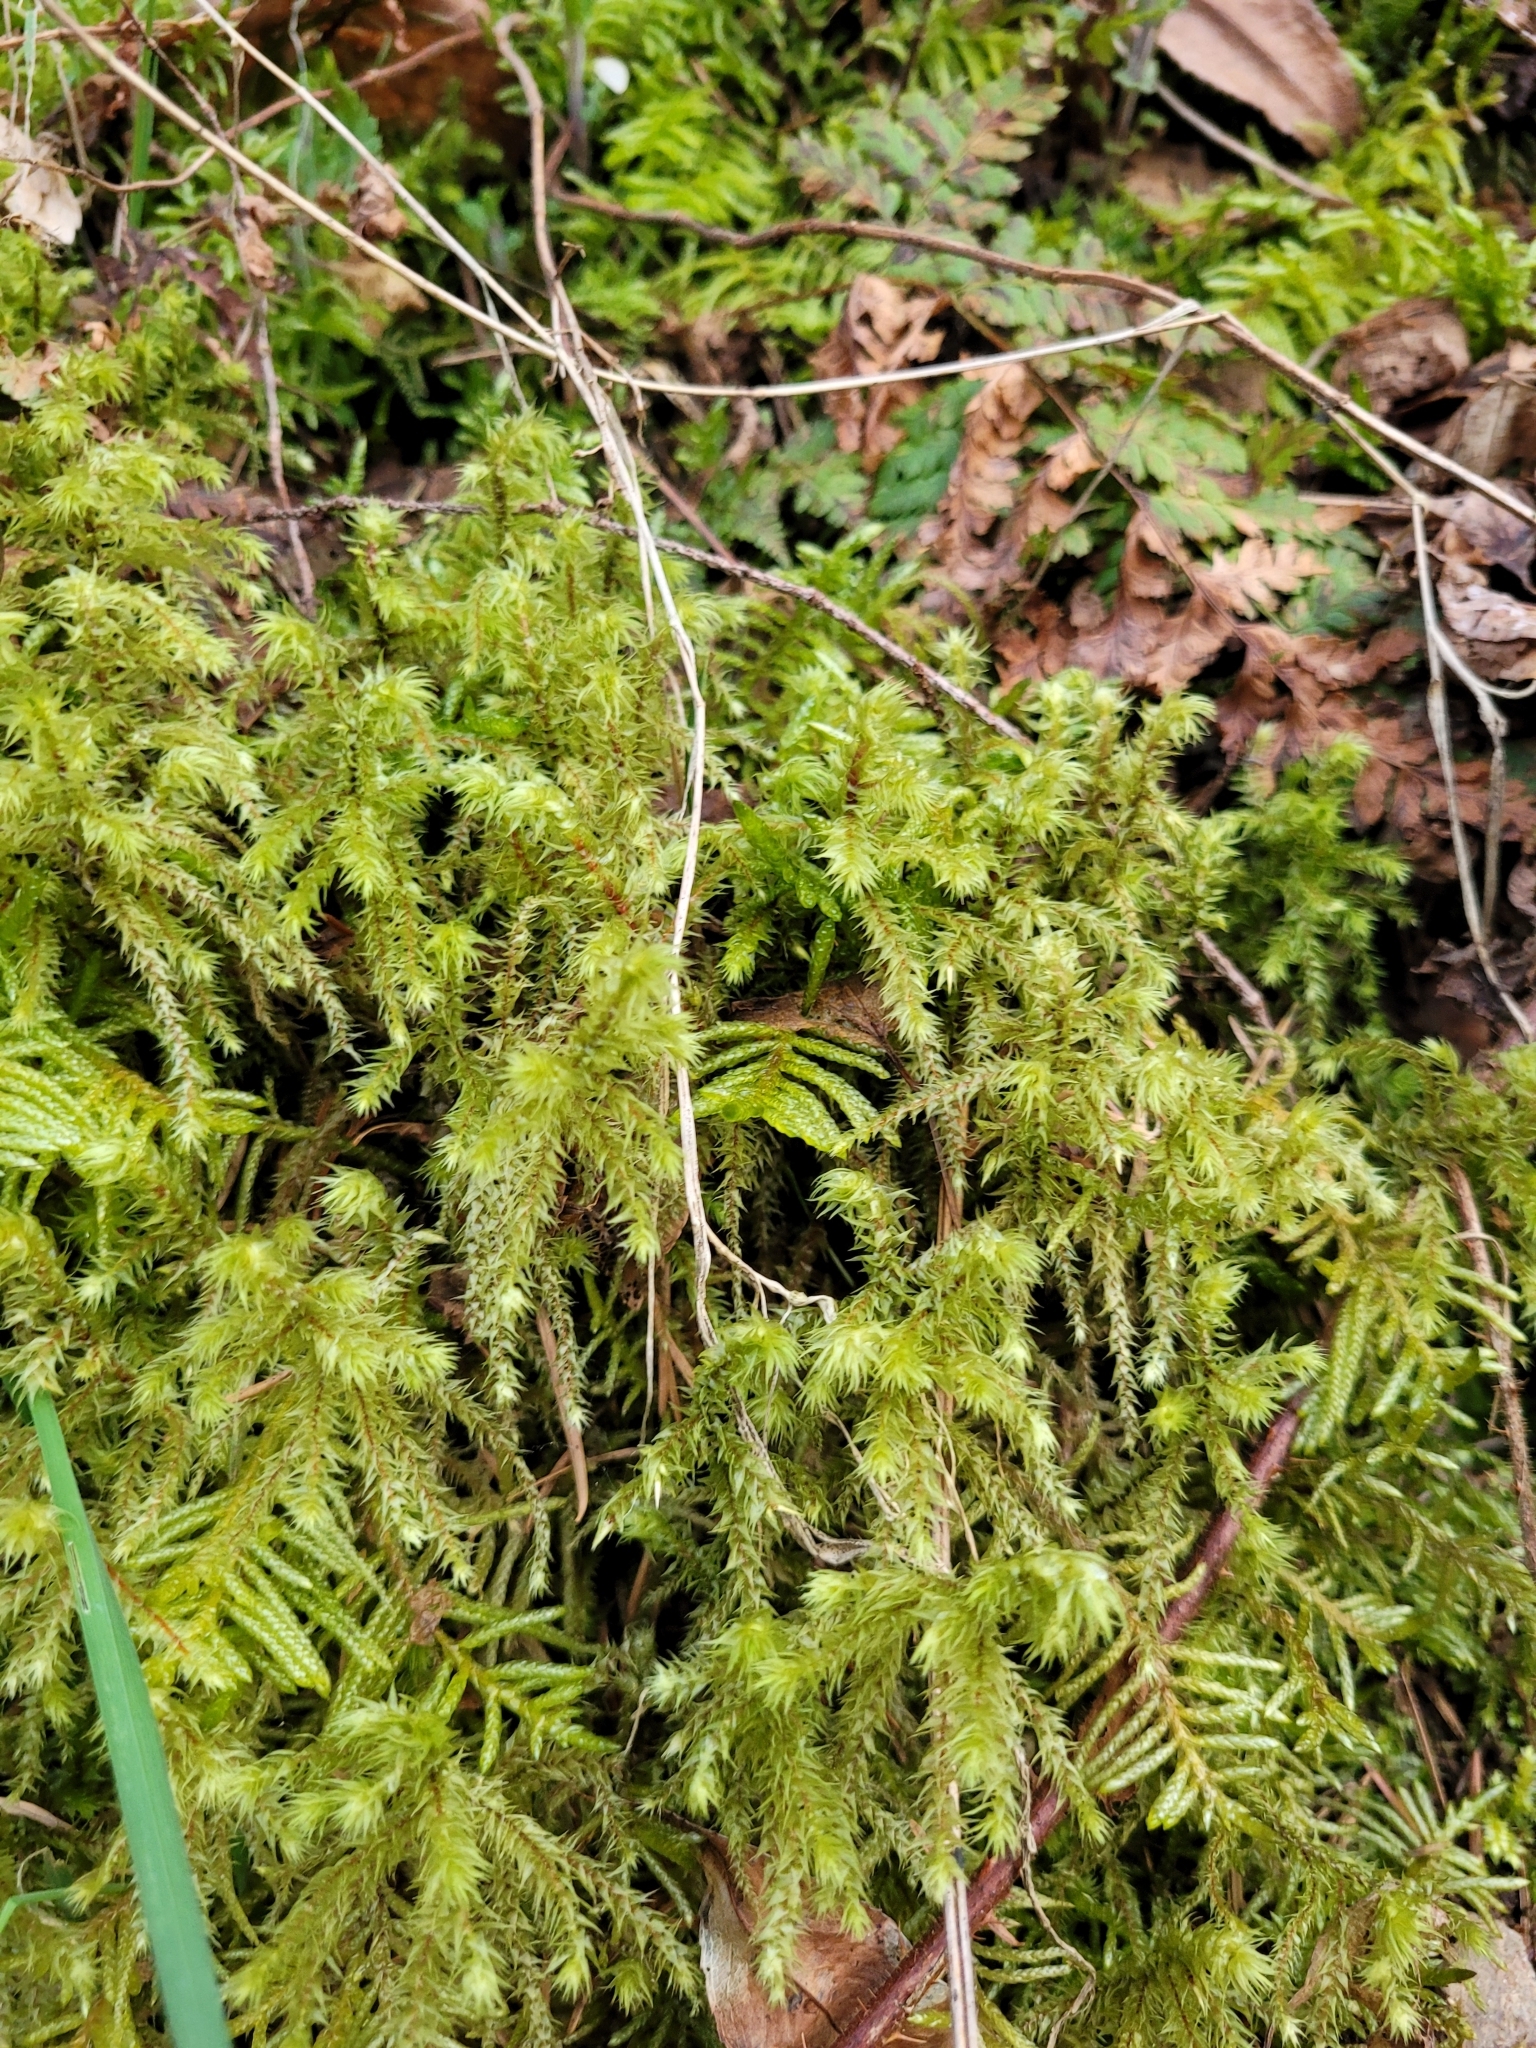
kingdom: Plantae
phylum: Bryophyta
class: Bryopsida
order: Hypnales
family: Hylocomiaceae
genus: Hylocomiadelphus
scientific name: Hylocomiadelphus triquetrus
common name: Rough goose neck moss
